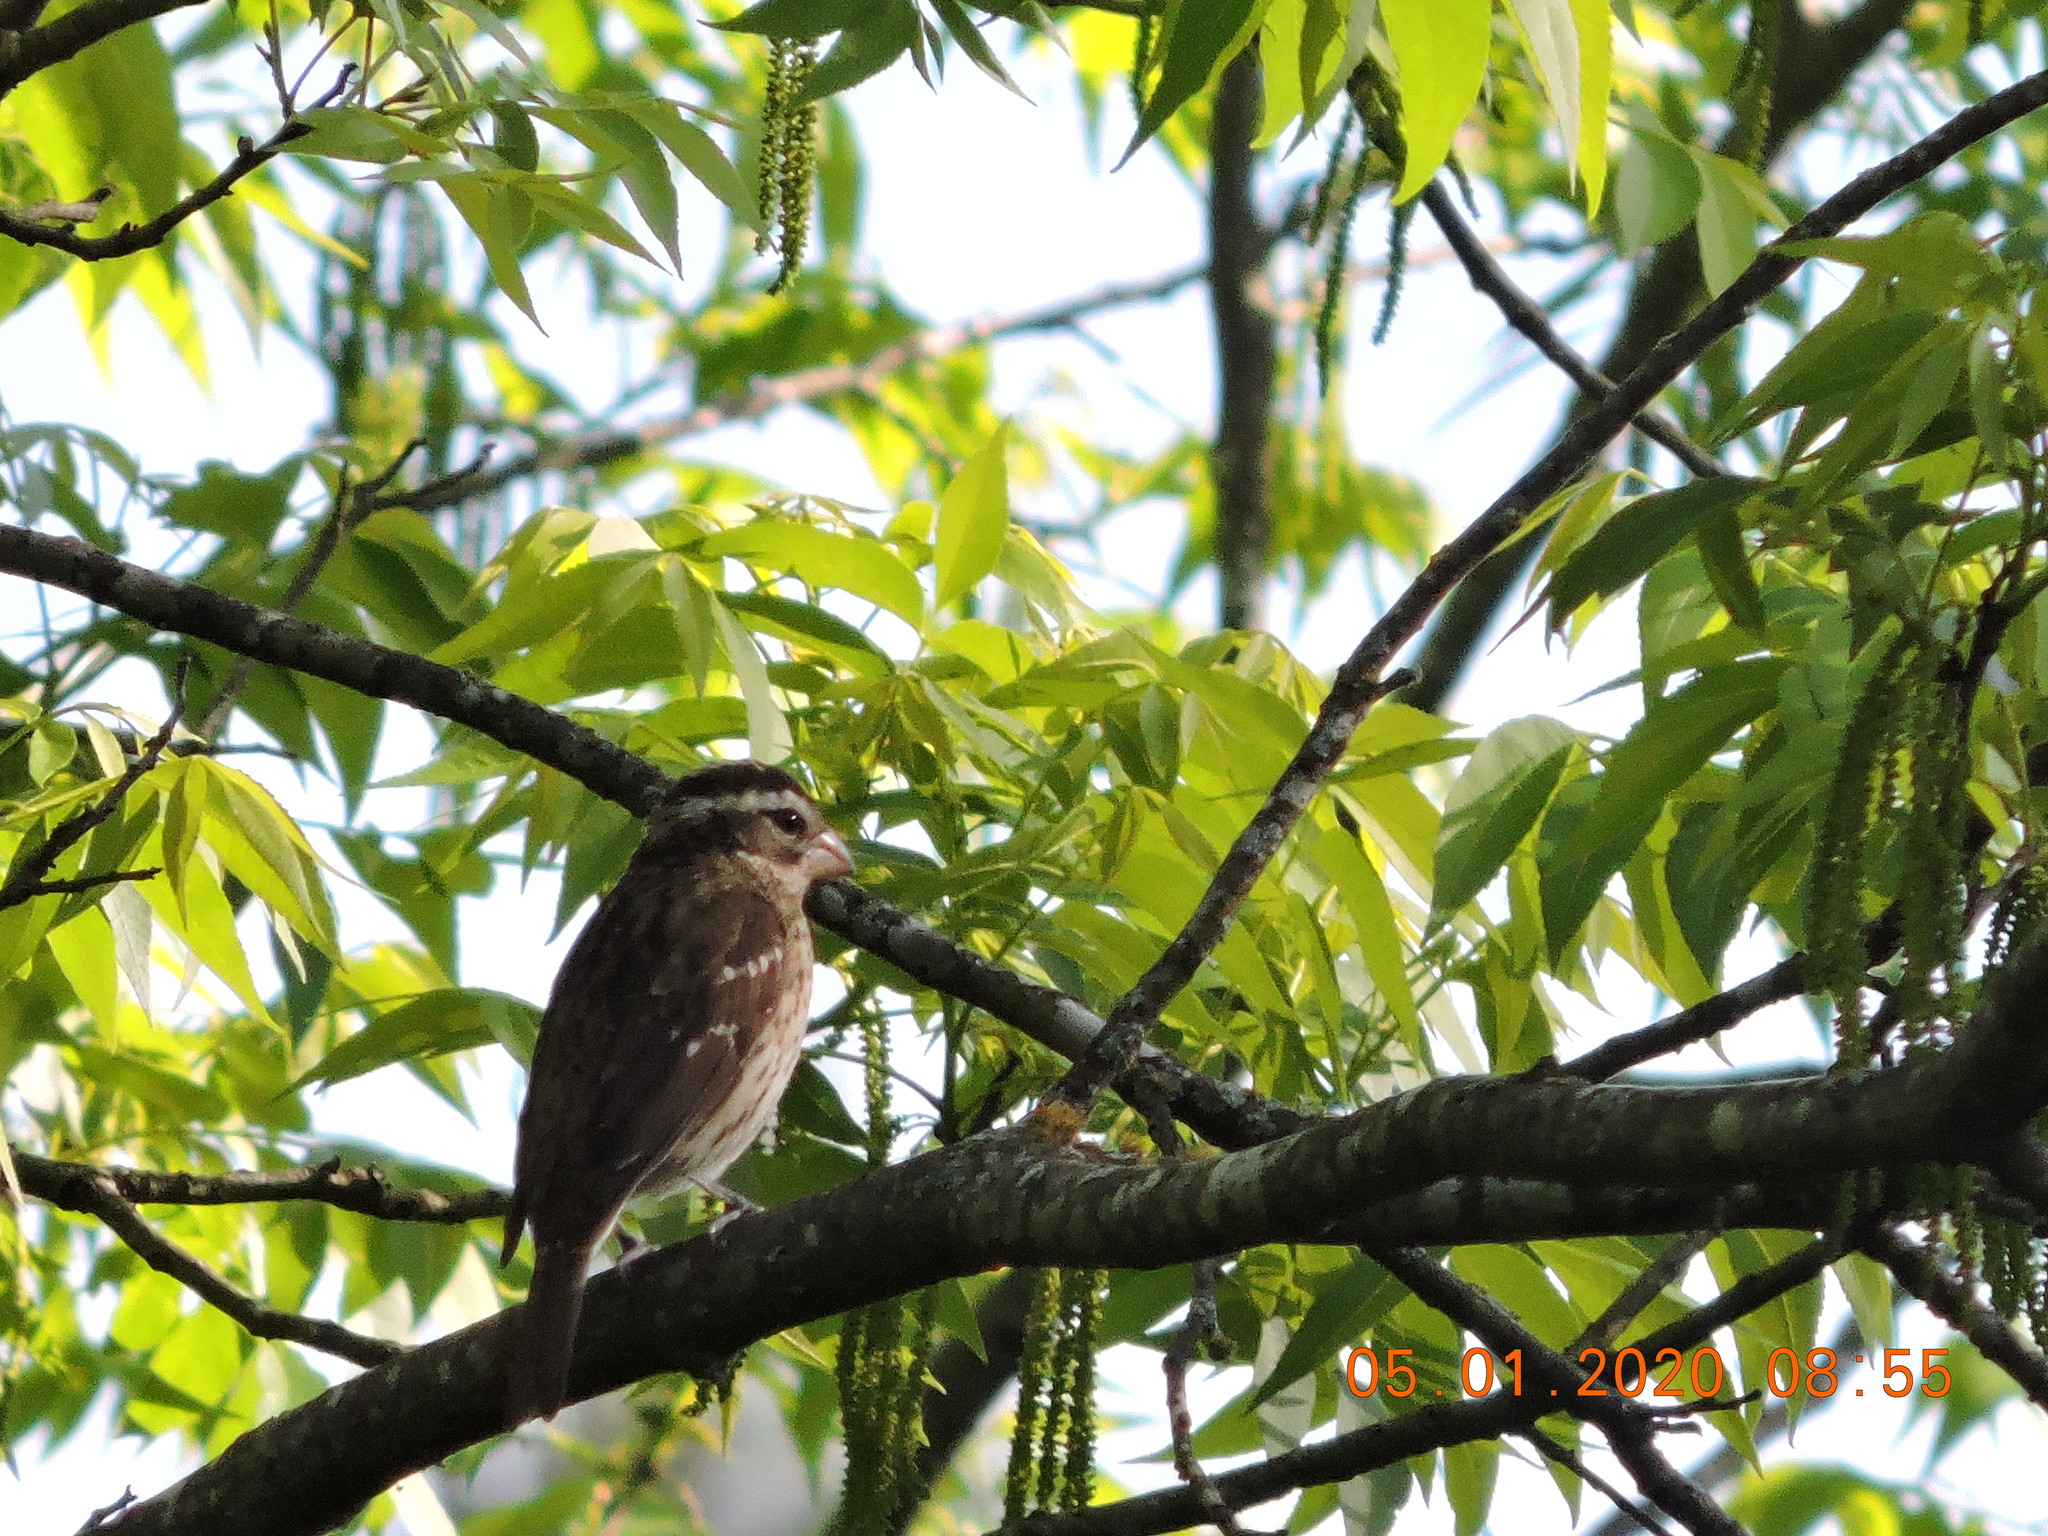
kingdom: Animalia
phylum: Chordata
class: Aves
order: Passeriformes
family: Cardinalidae
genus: Pheucticus
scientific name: Pheucticus ludovicianus
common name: Rose-breasted grosbeak
